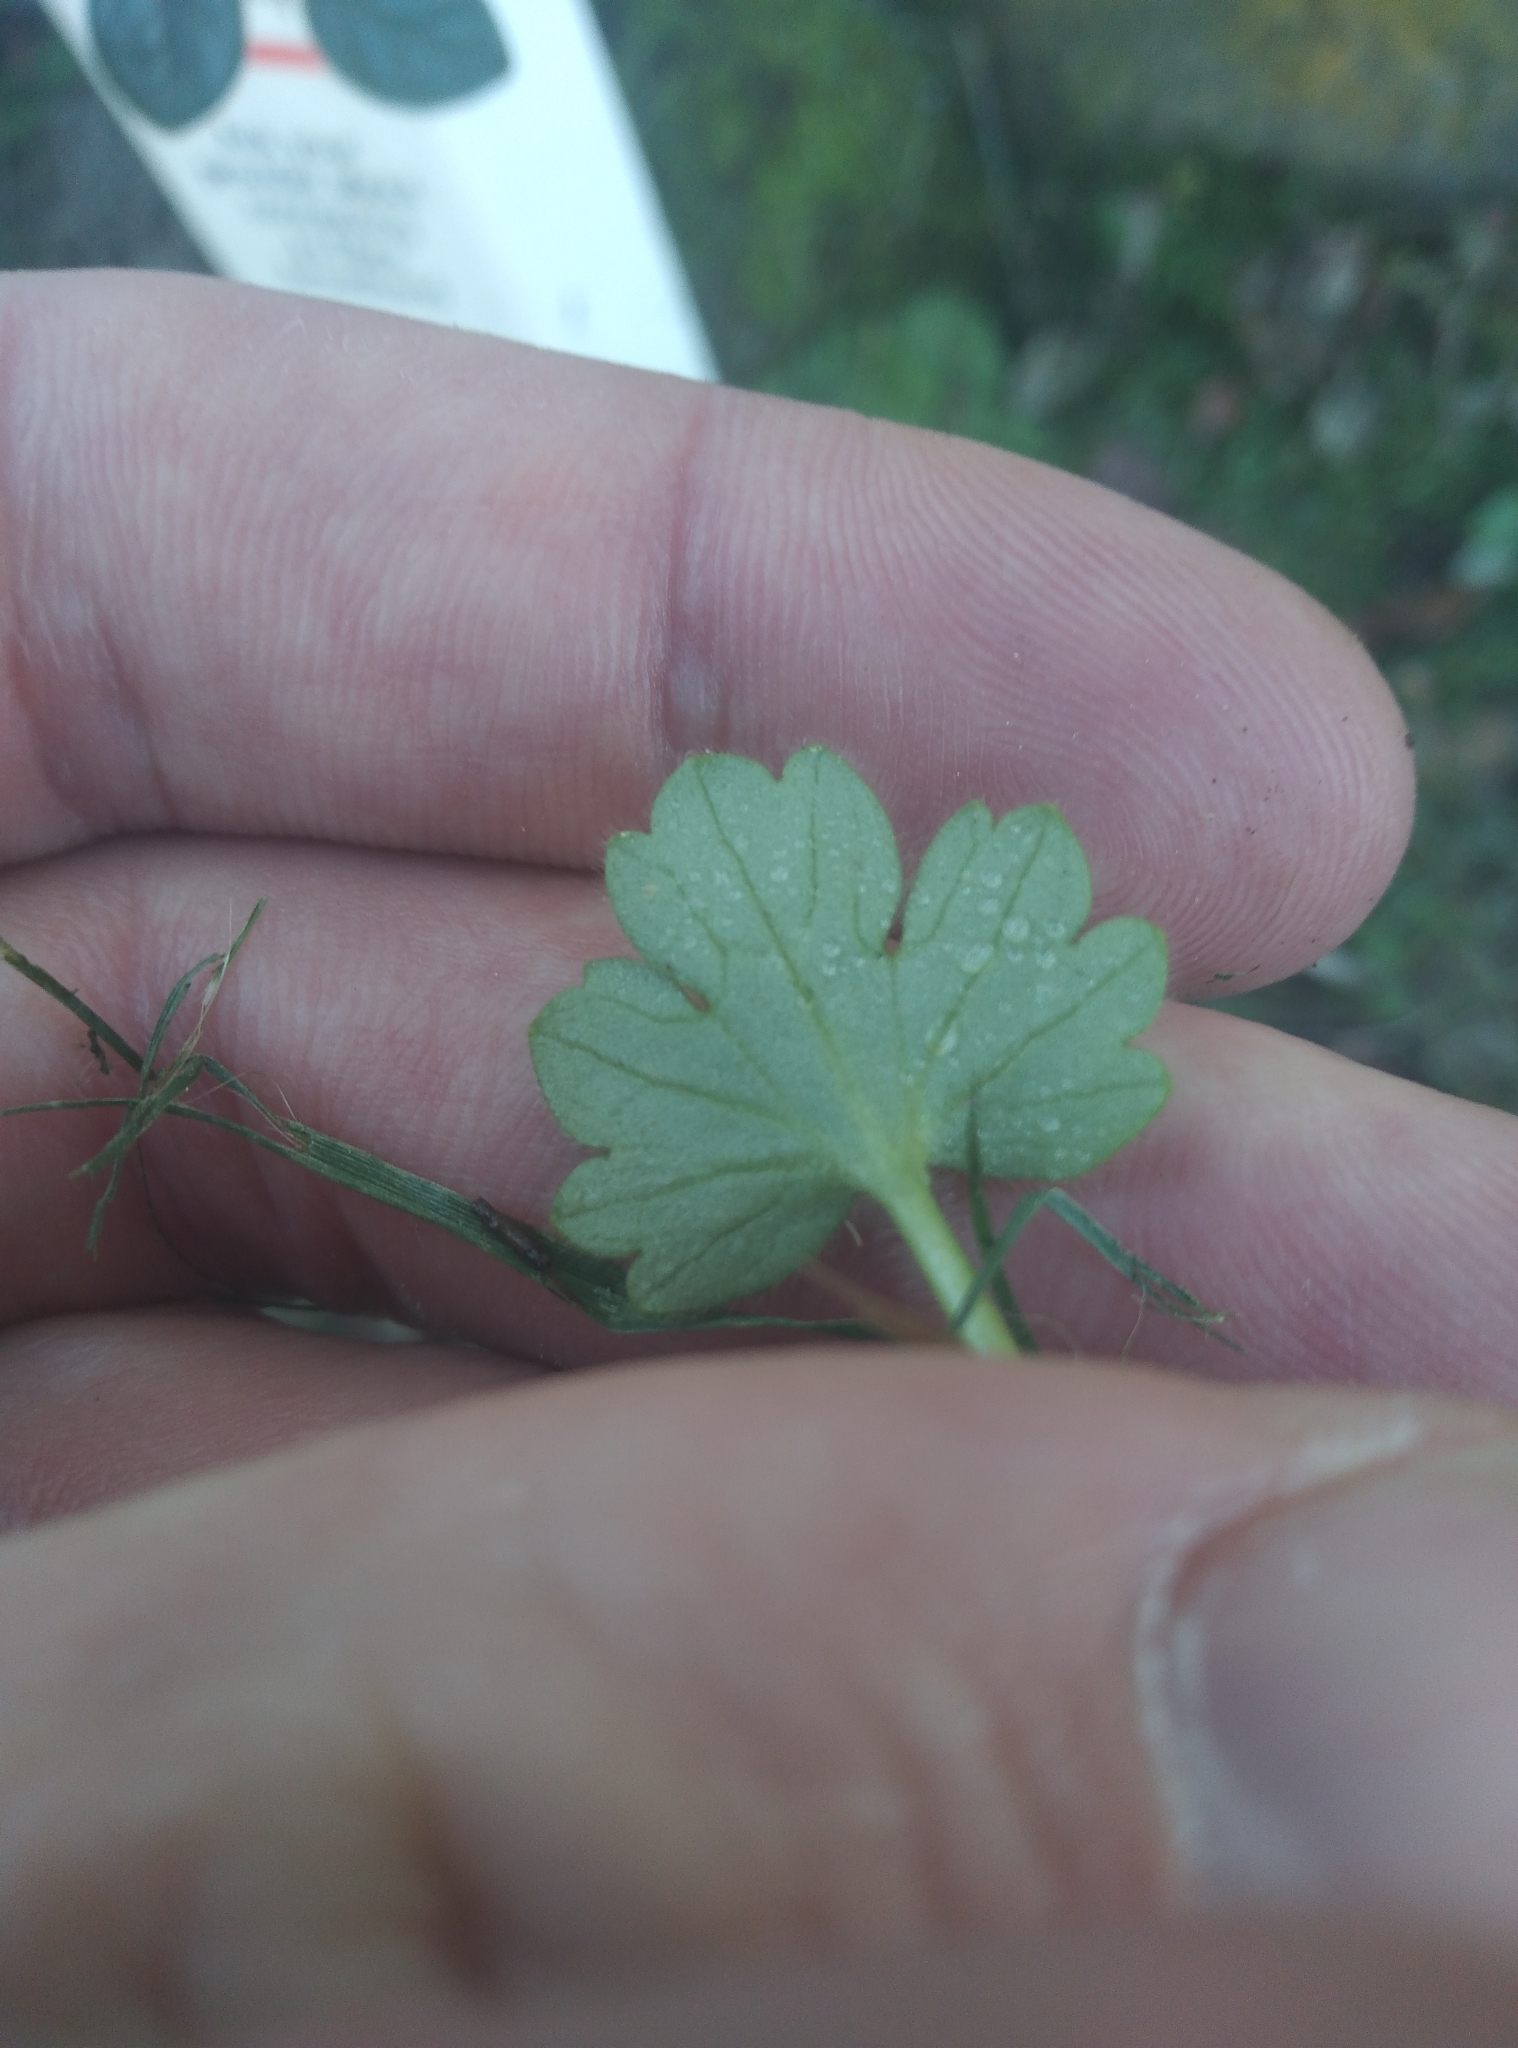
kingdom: Plantae
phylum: Tracheophyta
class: Magnoliopsida
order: Ranunculales
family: Ranunculaceae
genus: Ranunculus
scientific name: Ranunculus parviflorus
